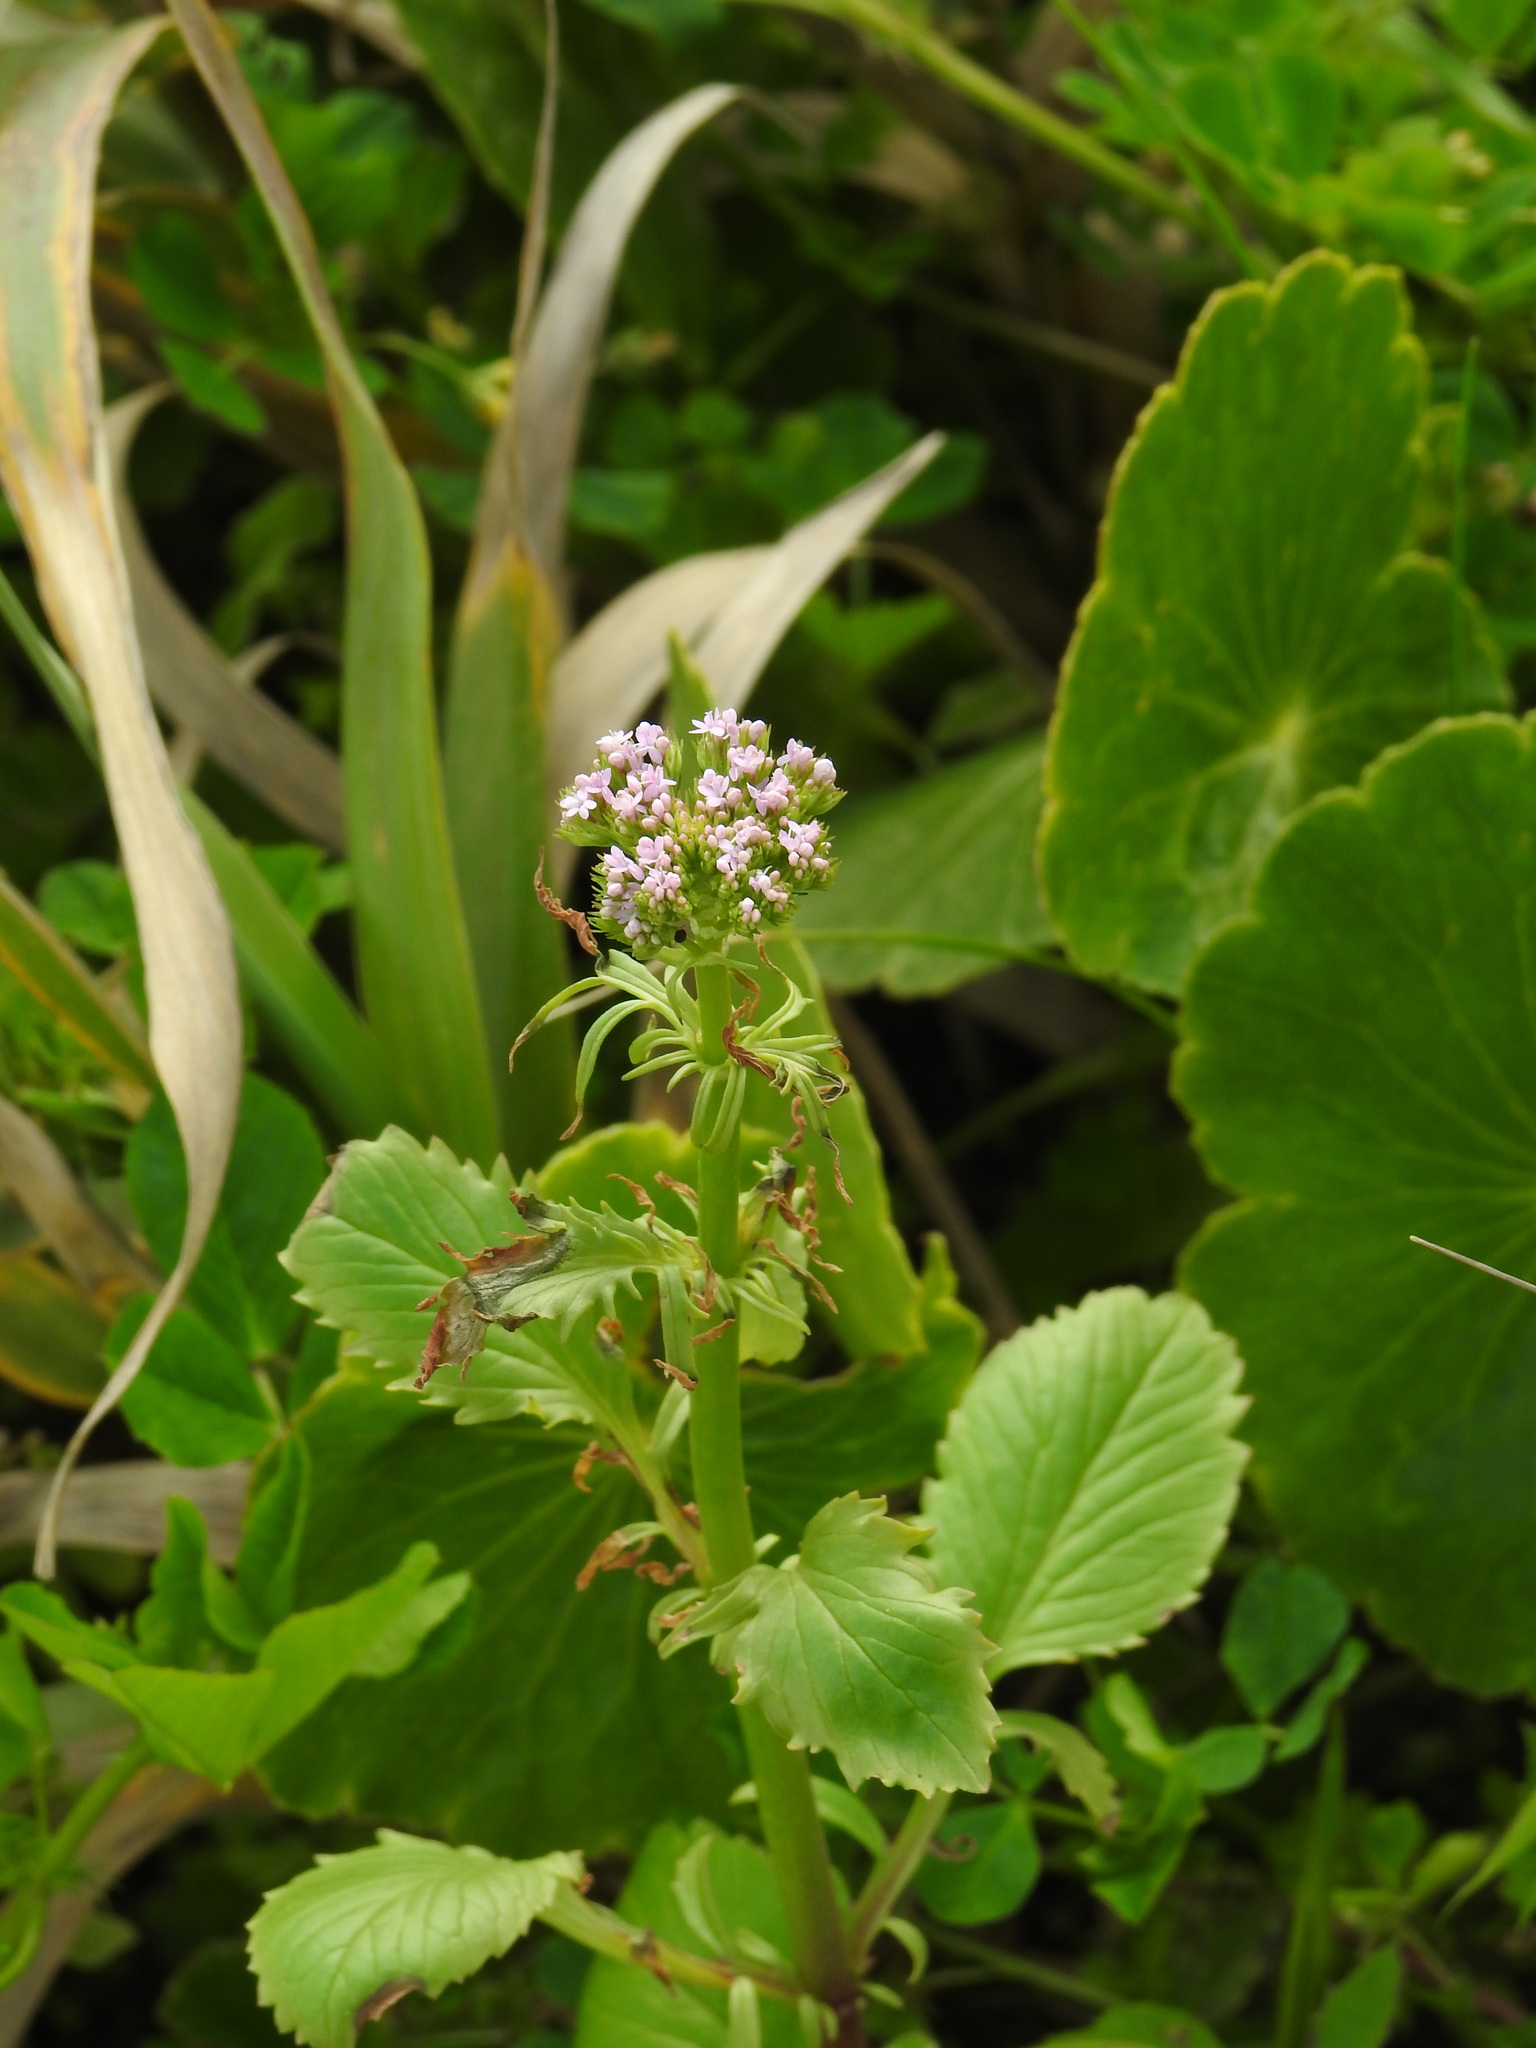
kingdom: Plantae
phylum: Tracheophyta
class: Magnoliopsida
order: Dipsacales
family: Caprifoliaceae
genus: Centranthus
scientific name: Centranthus calcitrapae
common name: Annual valerian
